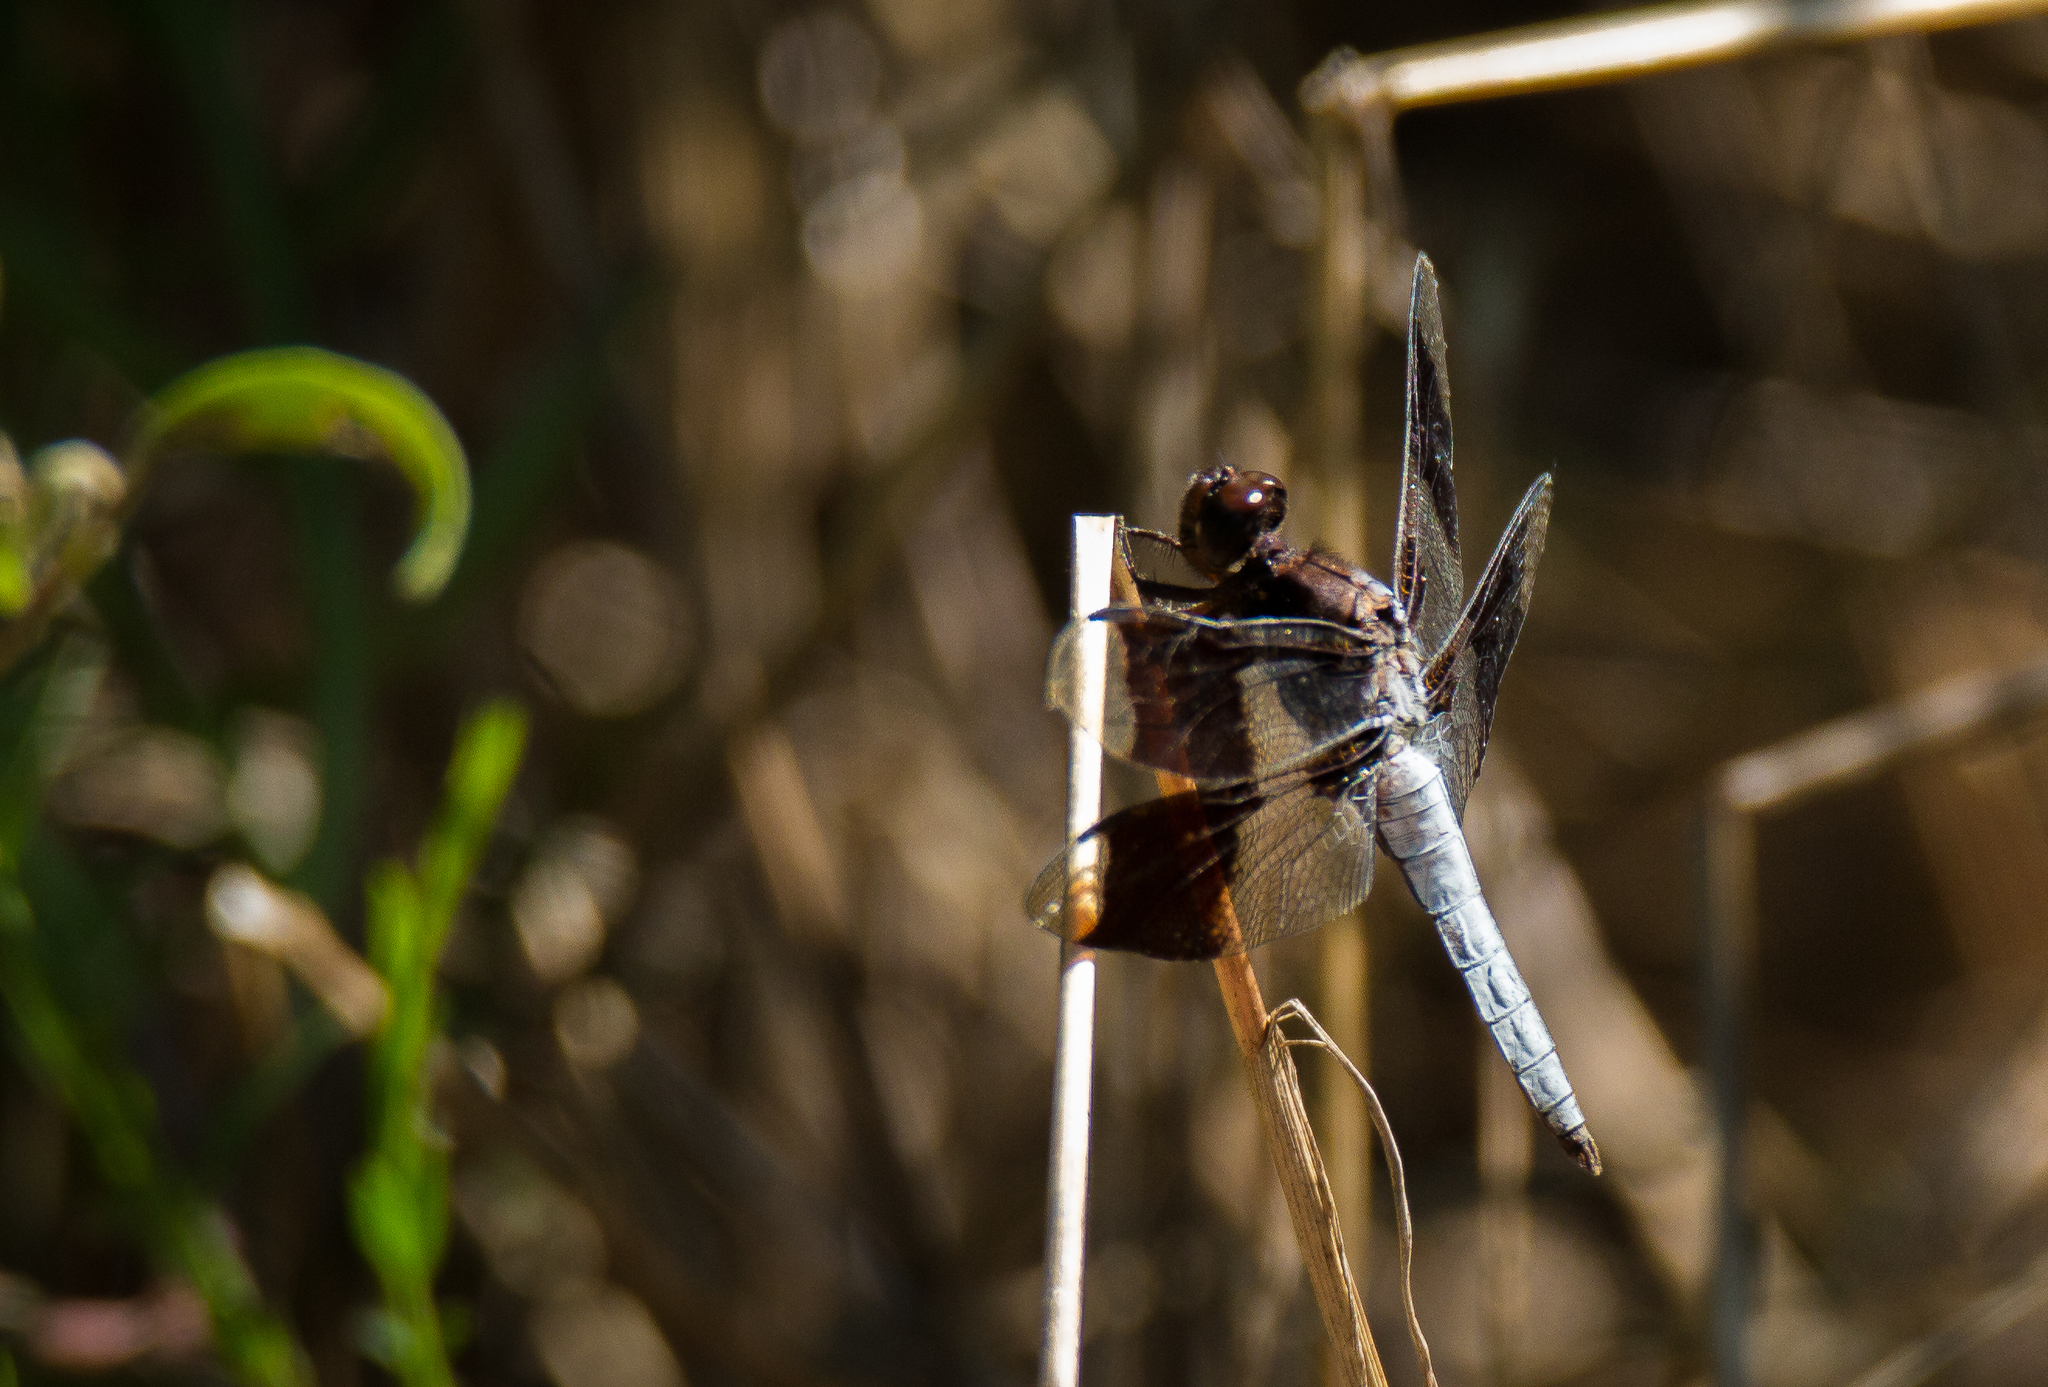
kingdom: Animalia
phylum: Arthropoda
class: Insecta
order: Odonata
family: Libellulidae
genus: Plathemis
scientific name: Plathemis lydia
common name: Common whitetail
